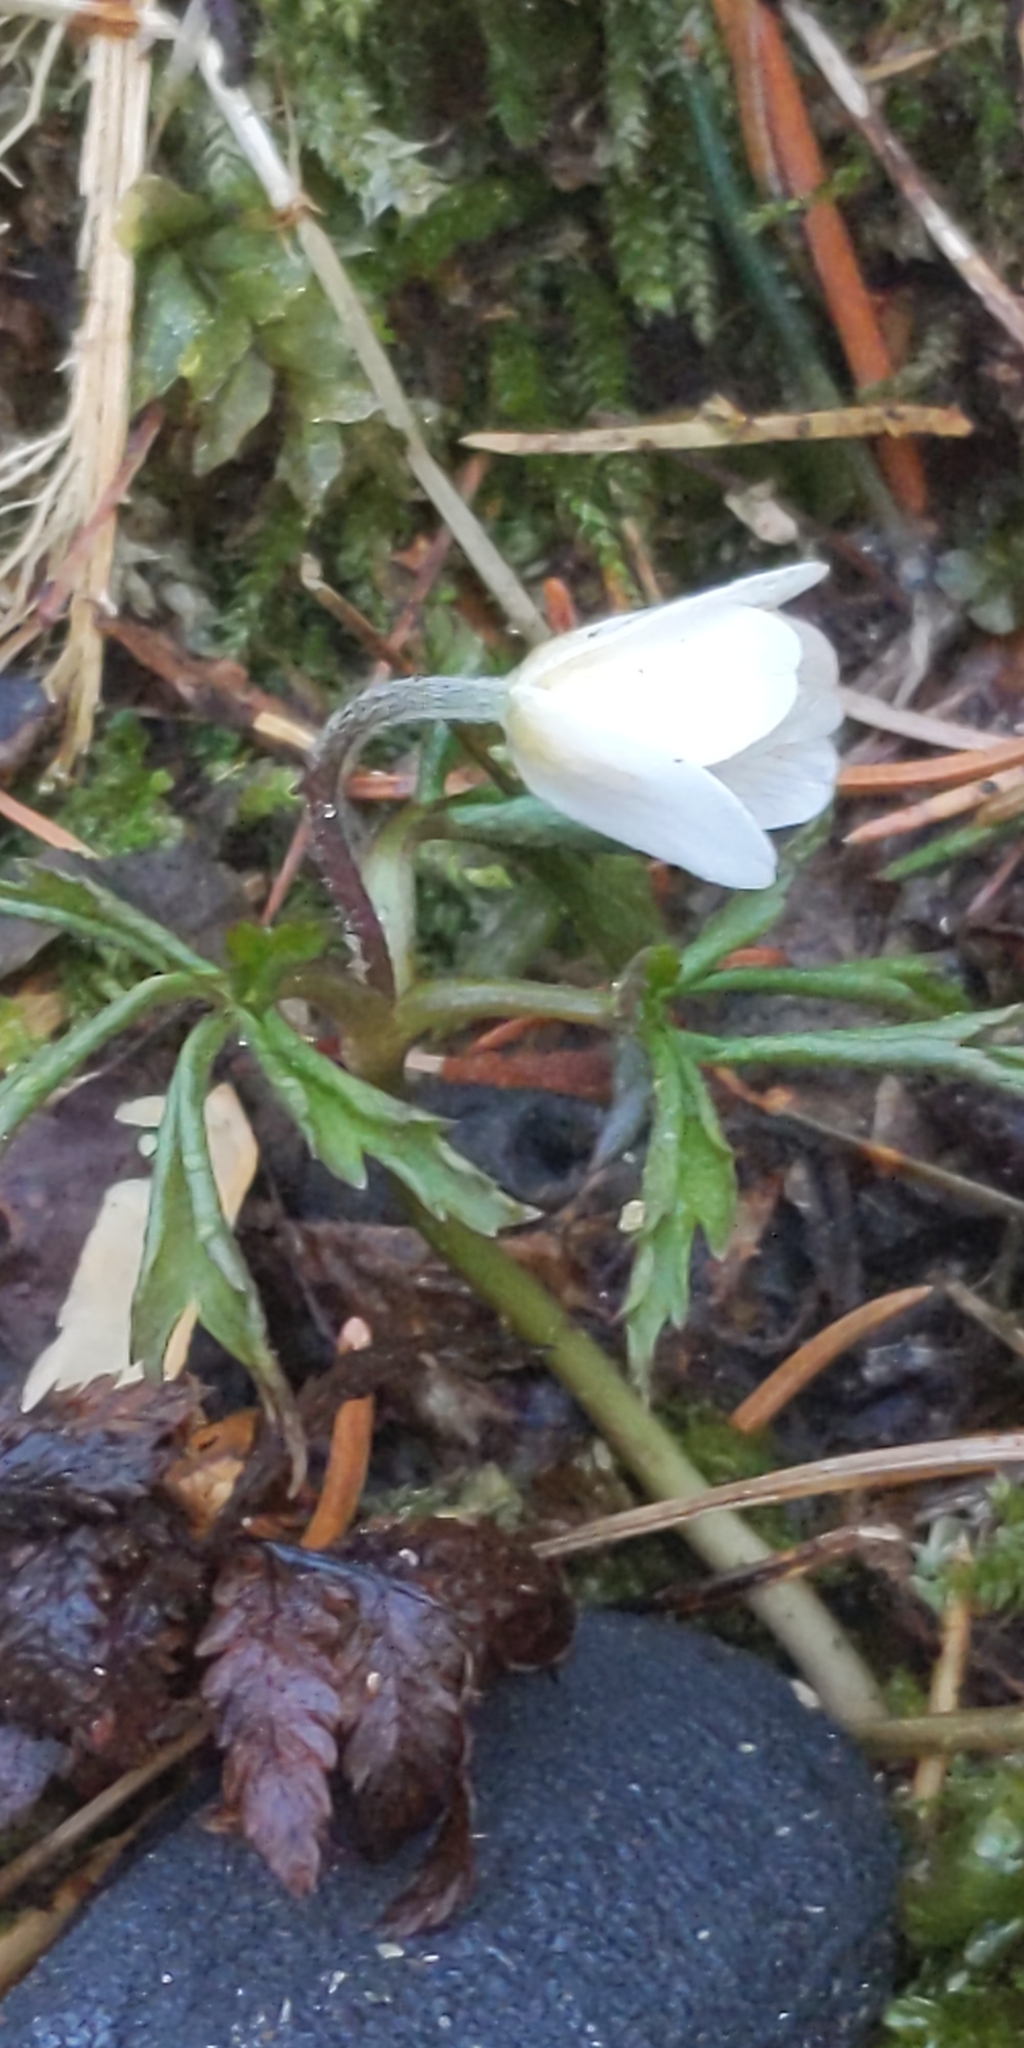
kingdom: Plantae
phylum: Tracheophyta
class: Magnoliopsida
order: Ranunculales
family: Ranunculaceae
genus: Anemone
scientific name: Anemone nemorosa
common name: Wood anemone
